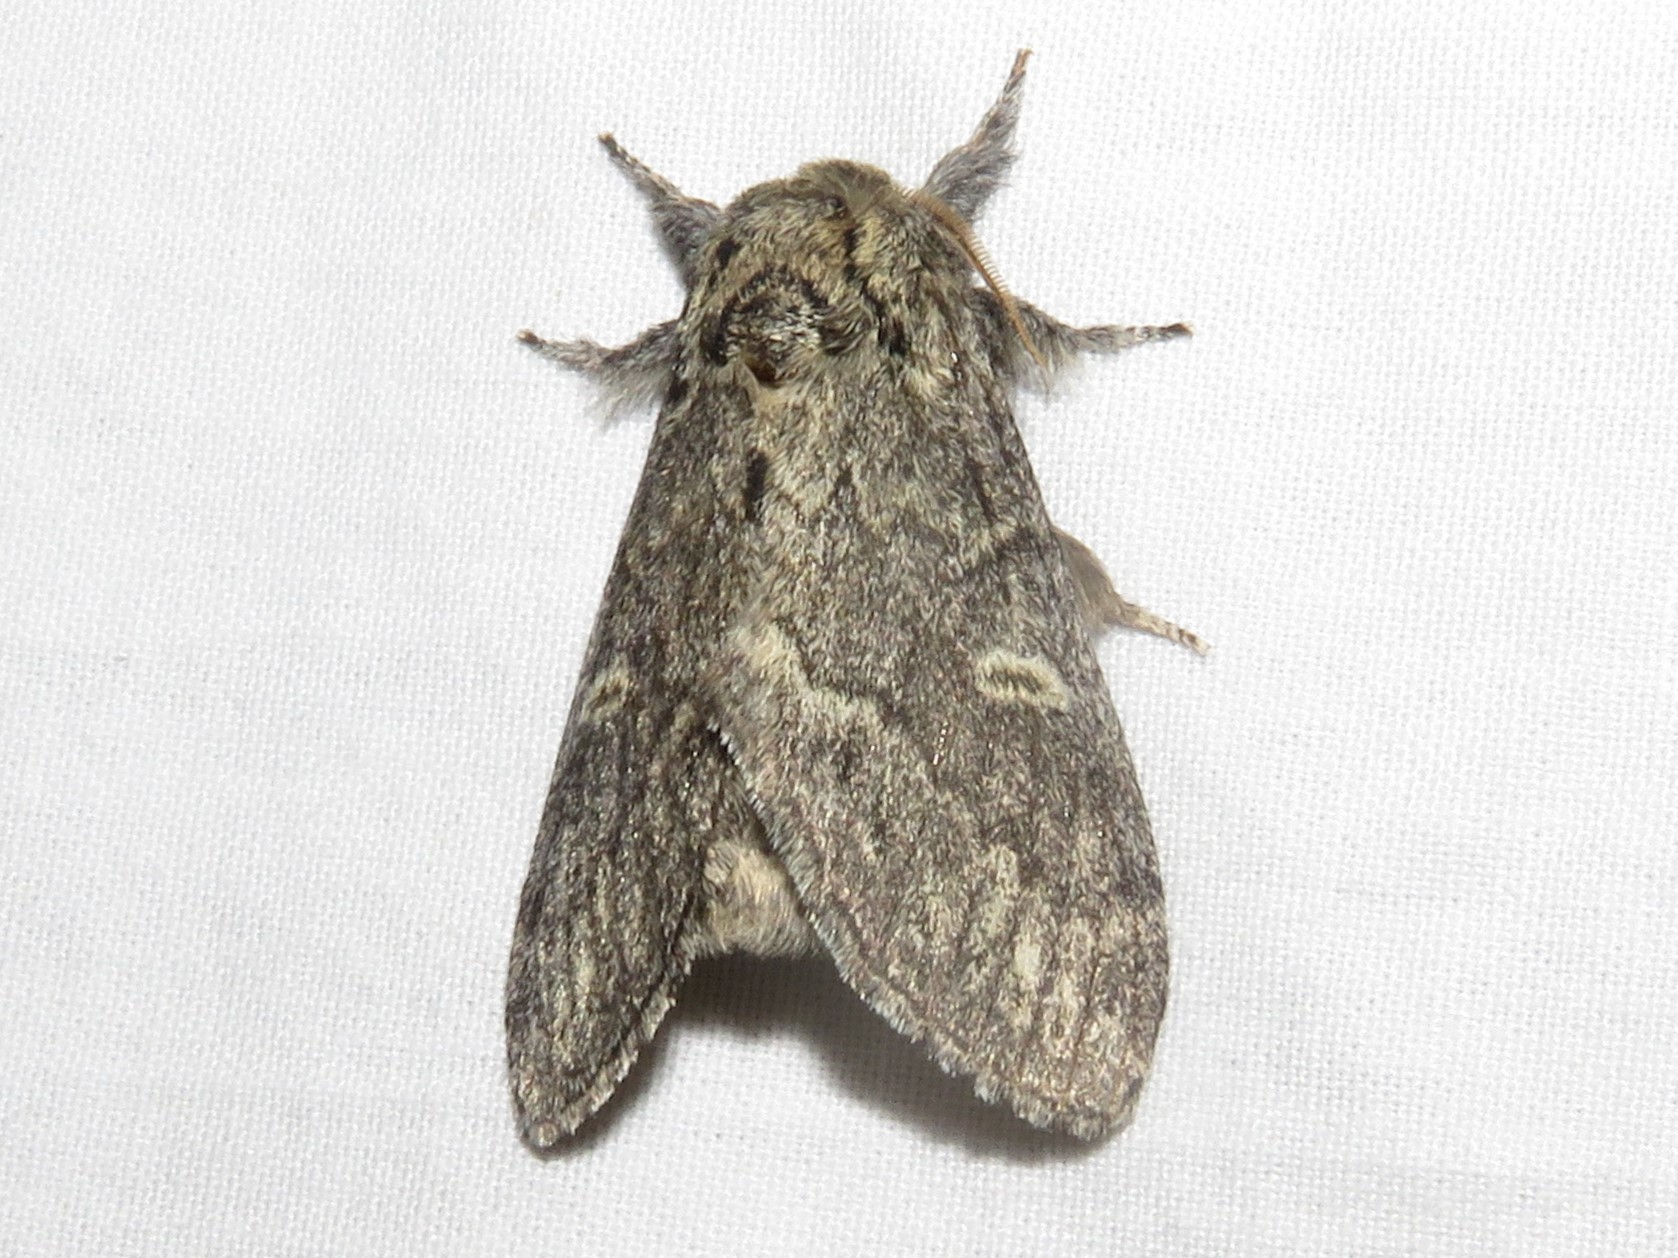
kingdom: Animalia
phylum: Arthropoda
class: Insecta
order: Lepidoptera
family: Notodontidae
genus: Notodonta
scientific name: Notodonta torva
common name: Large dark prominent
